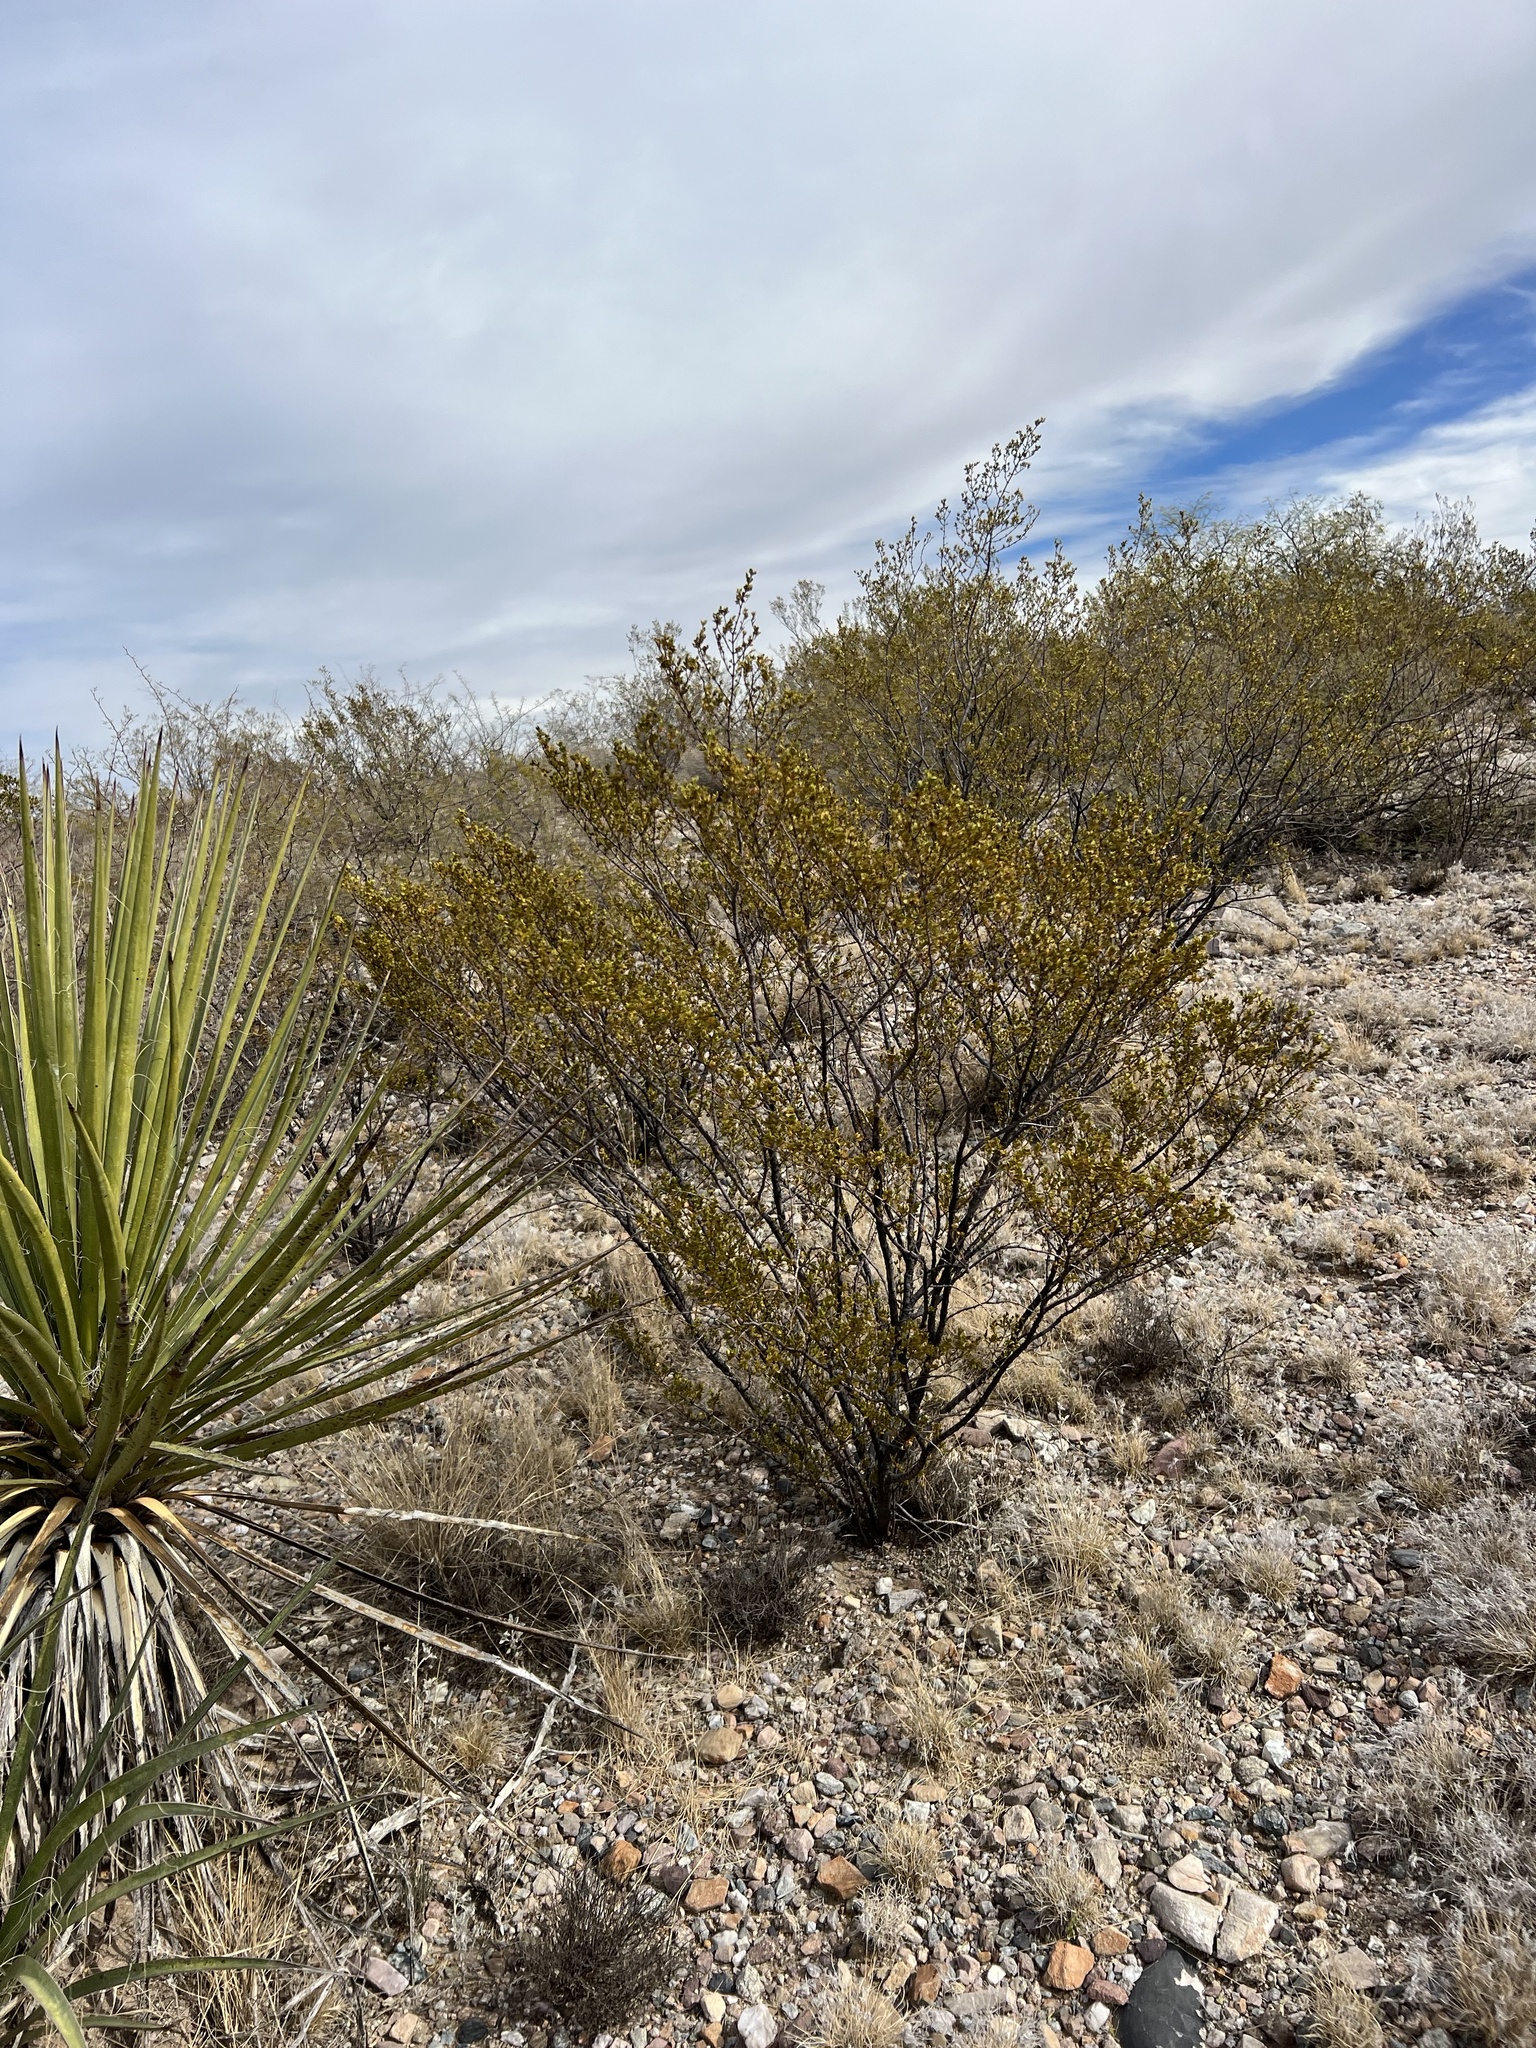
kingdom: Plantae
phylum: Tracheophyta
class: Magnoliopsida
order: Zygophyllales
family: Zygophyllaceae
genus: Larrea
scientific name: Larrea tridentata
